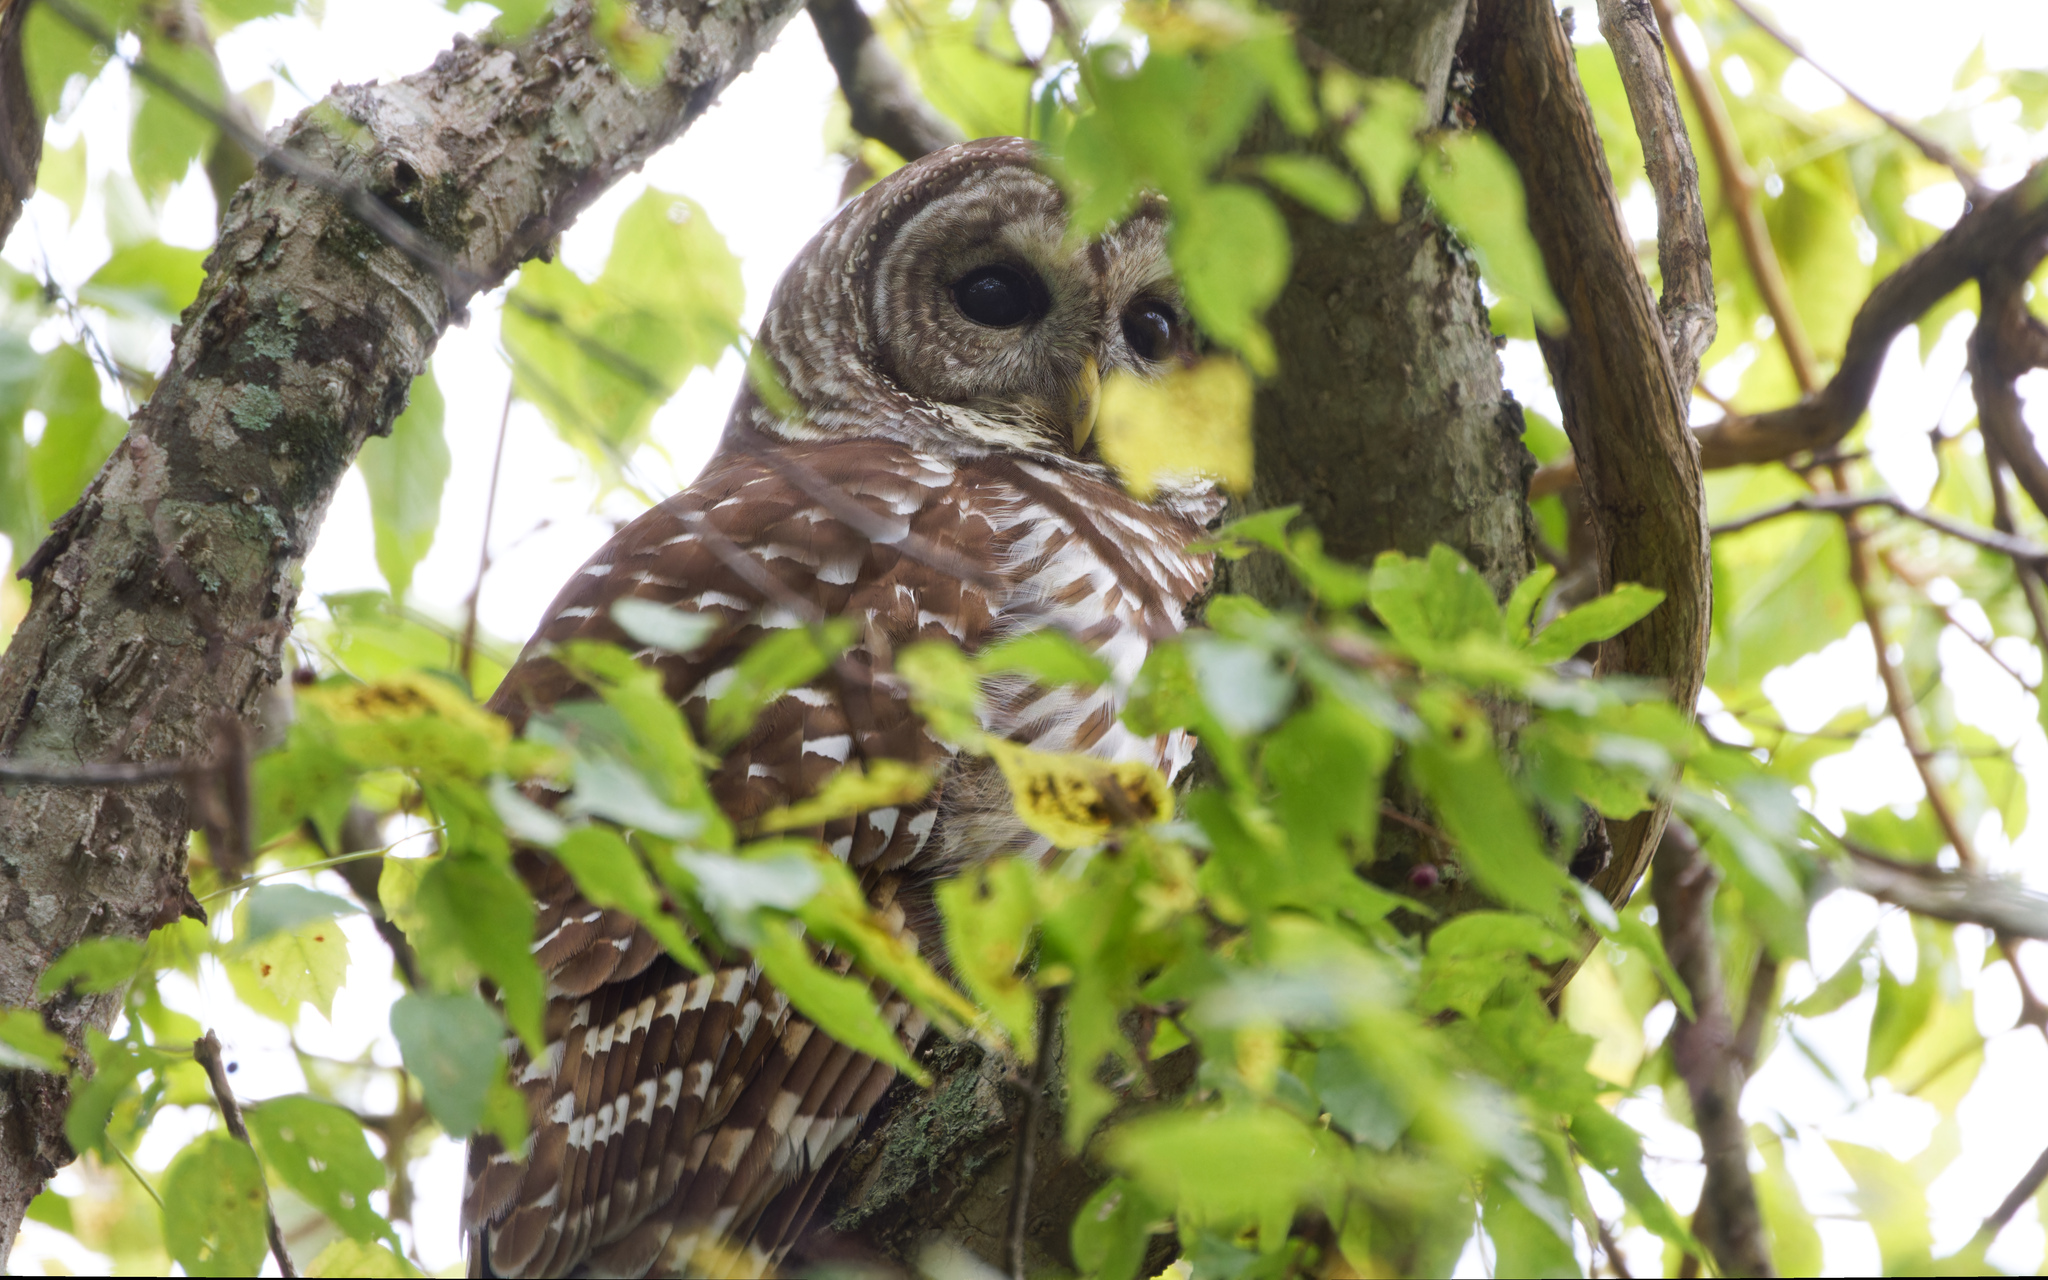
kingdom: Animalia
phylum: Chordata
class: Aves
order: Strigiformes
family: Strigidae
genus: Strix
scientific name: Strix varia
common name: Barred owl
